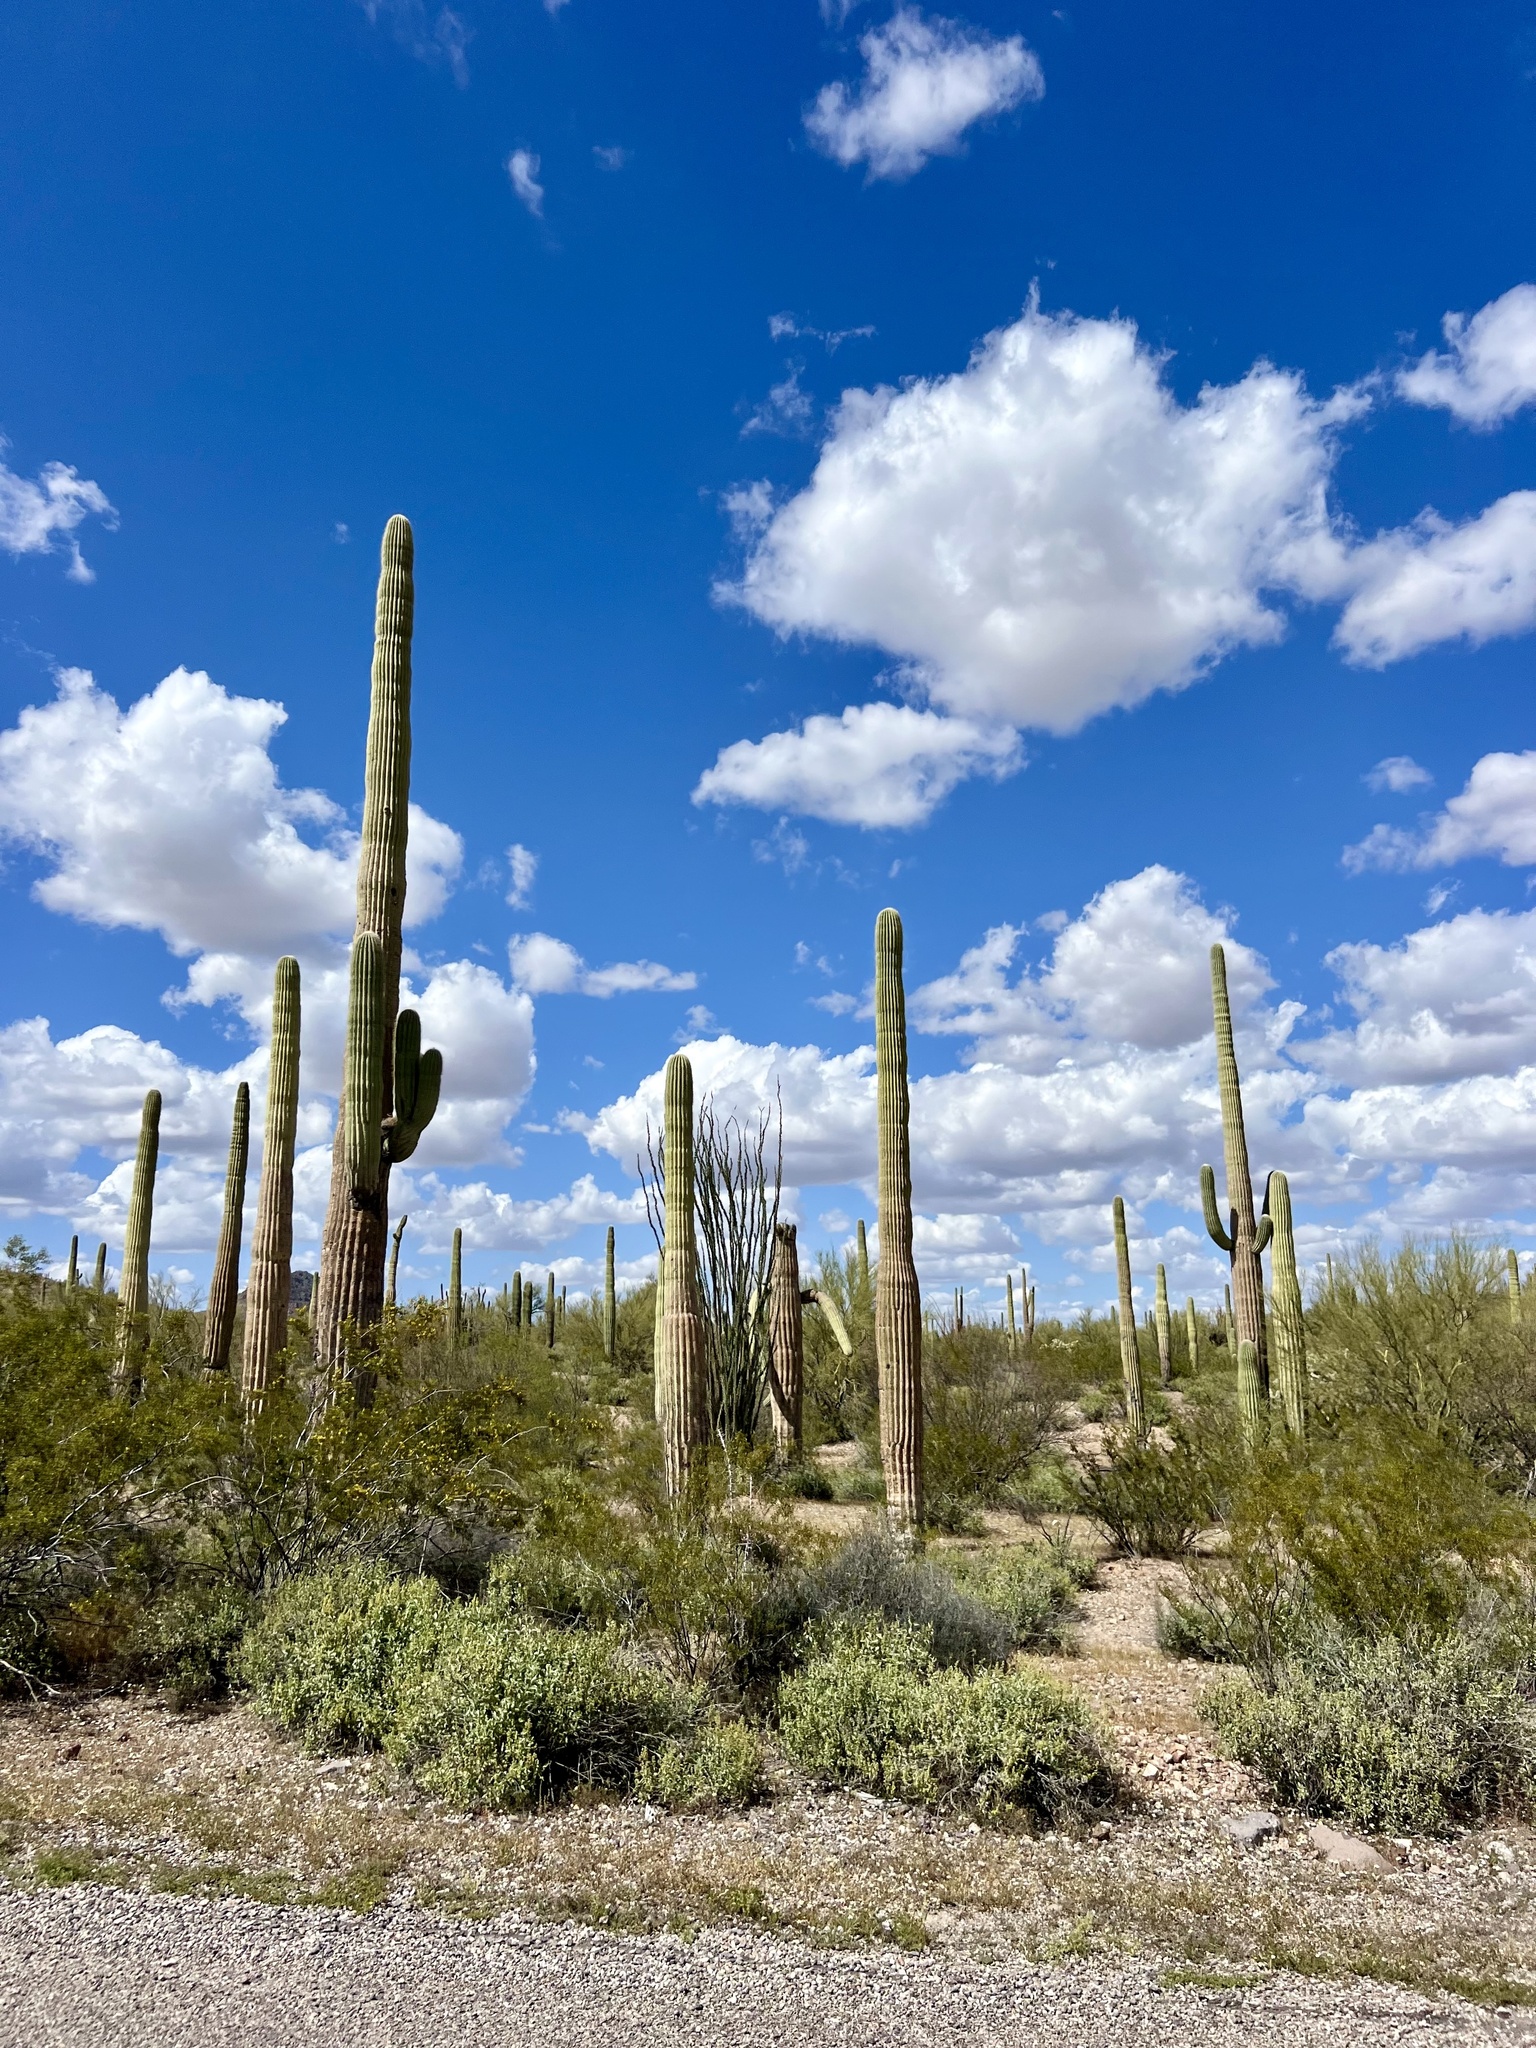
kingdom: Plantae
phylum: Tracheophyta
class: Magnoliopsida
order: Caryophyllales
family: Cactaceae
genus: Carnegiea
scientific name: Carnegiea gigantea
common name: Saguaro
